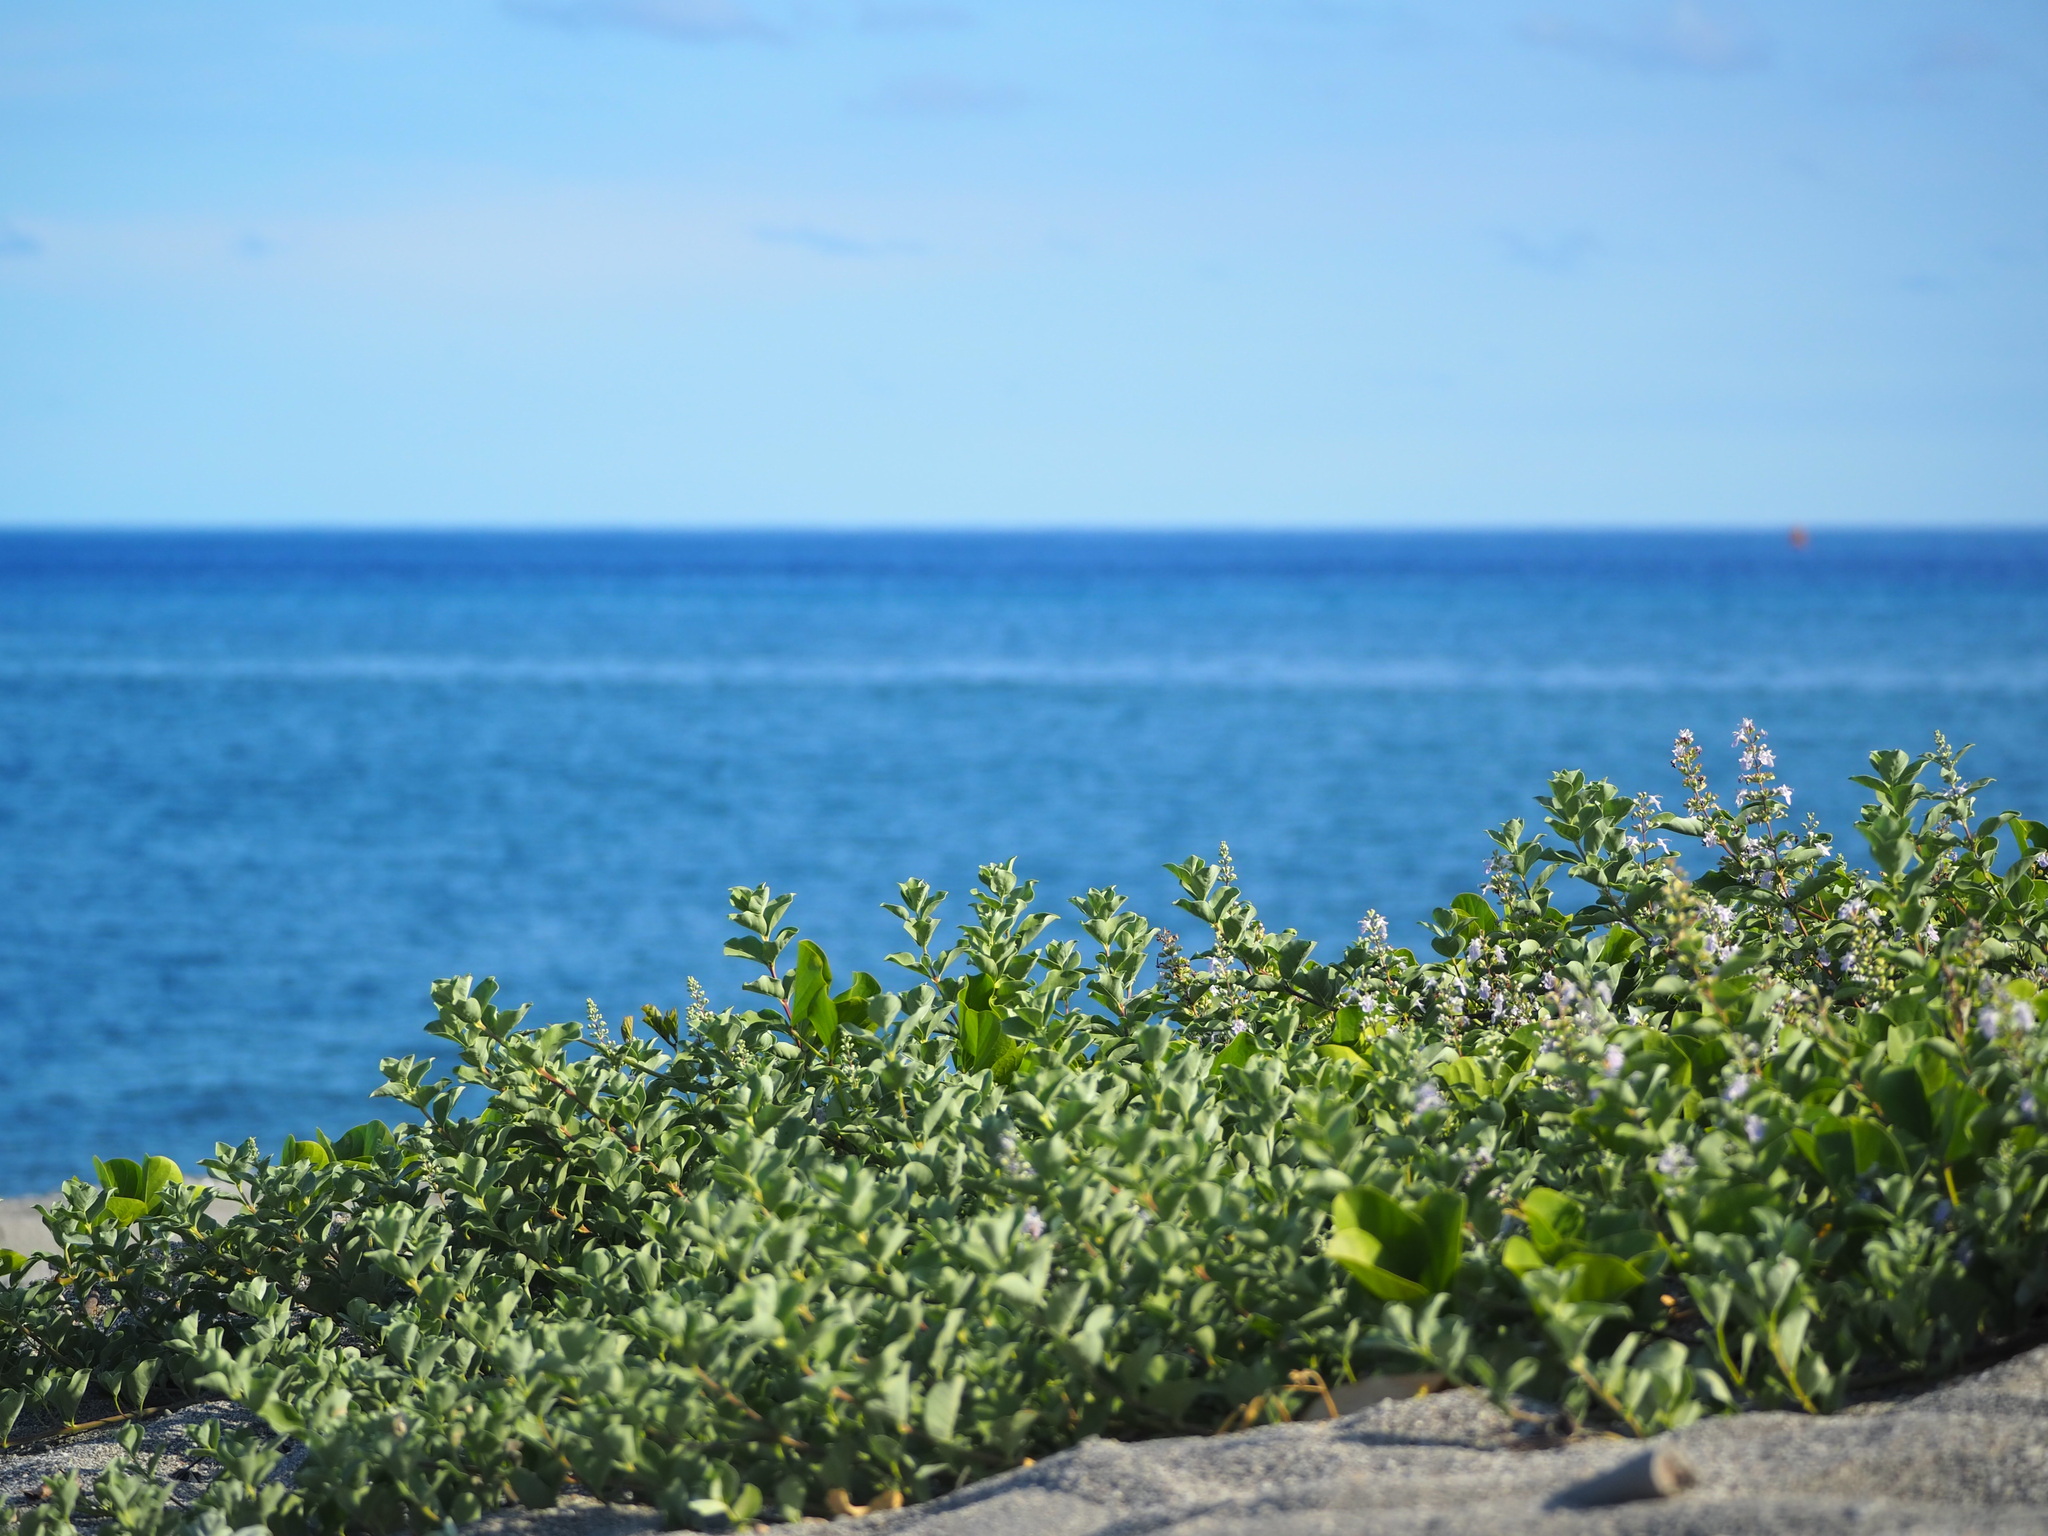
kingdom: Plantae
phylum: Tracheophyta
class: Magnoliopsida
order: Lamiales
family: Lamiaceae
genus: Vitex
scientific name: Vitex rotundifolia
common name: Beach vitex
